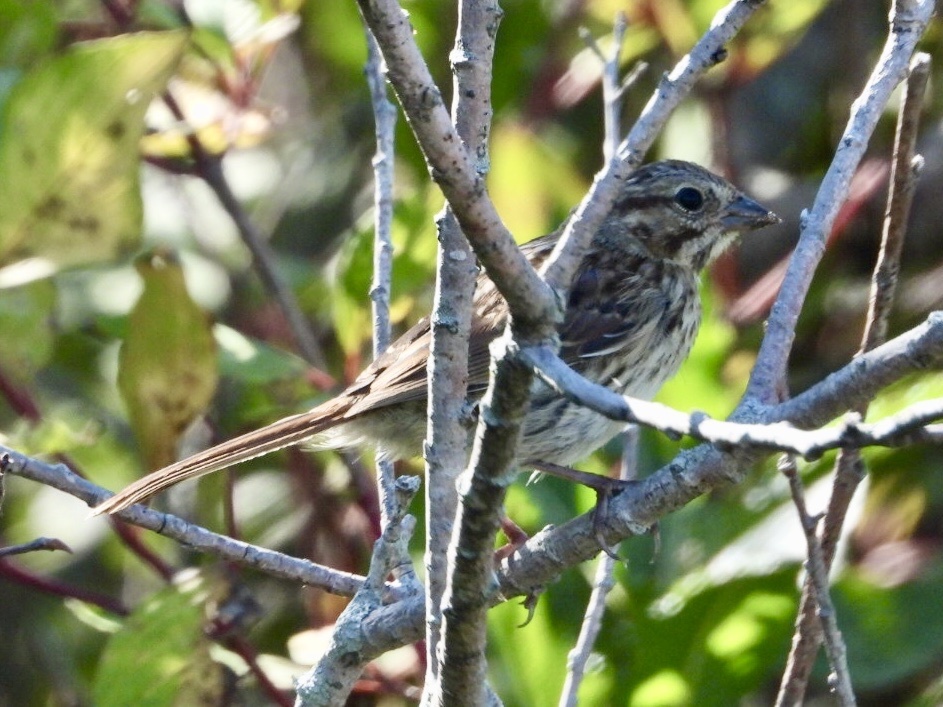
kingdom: Animalia
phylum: Chordata
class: Aves
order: Passeriformes
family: Passerellidae
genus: Melospiza
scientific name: Melospiza melodia
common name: Song sparrow
